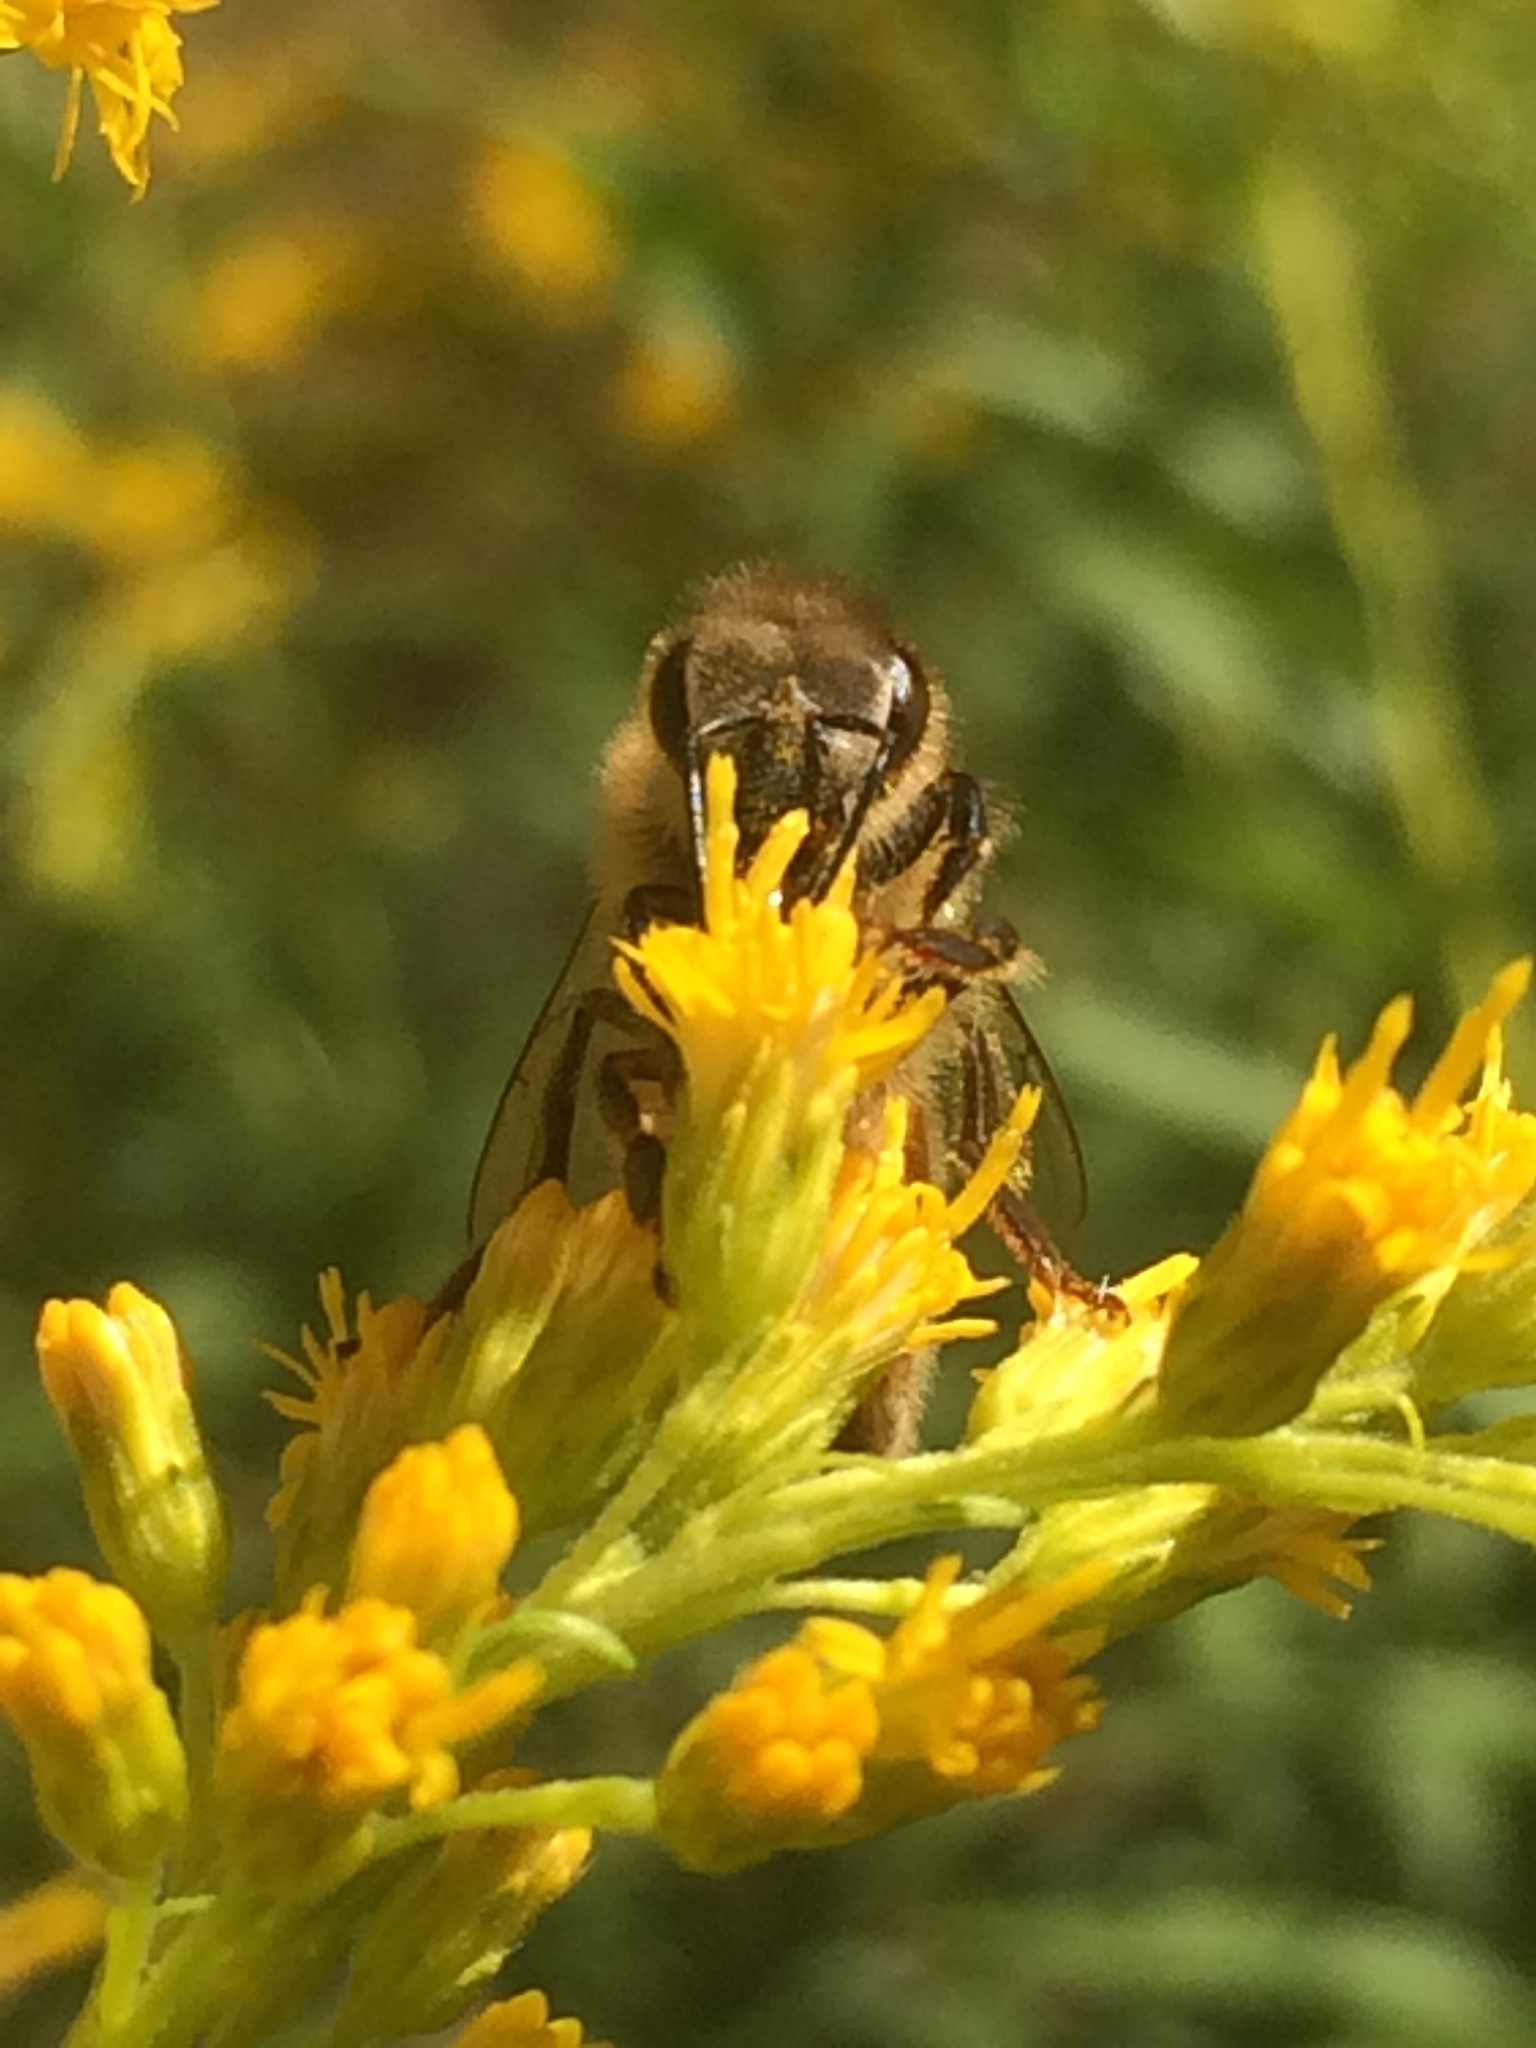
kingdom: Animalia
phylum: Arthropoda
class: Insecta
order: Hymenoptera
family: Apidae
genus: Apis
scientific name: Apis mellifera
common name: Honey bee
